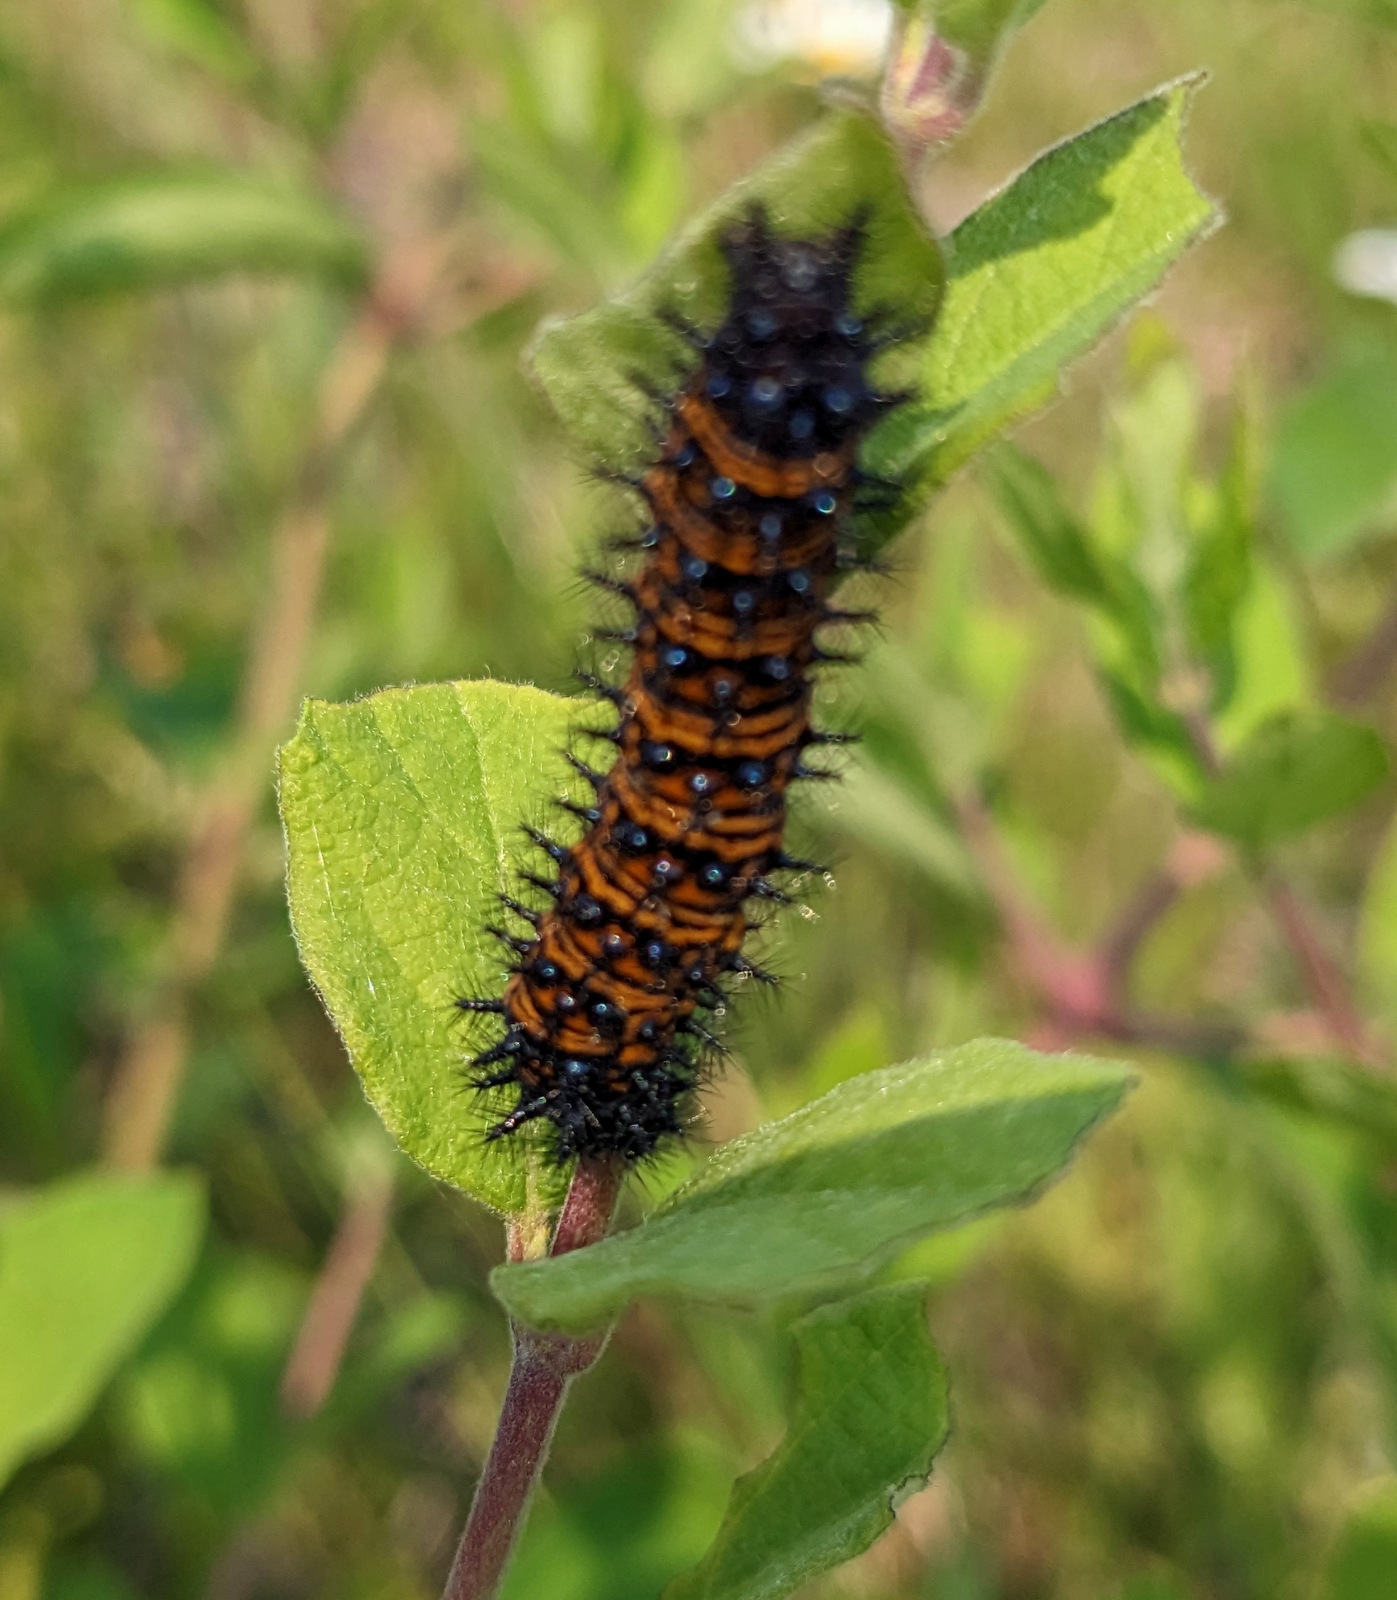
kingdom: Animalia
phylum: Arthropoda
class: Insecta
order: Lepidoptera
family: Nymphalidae
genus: Euphydryas
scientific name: Euphydryas phaeton
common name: Baltimore checkerspot
